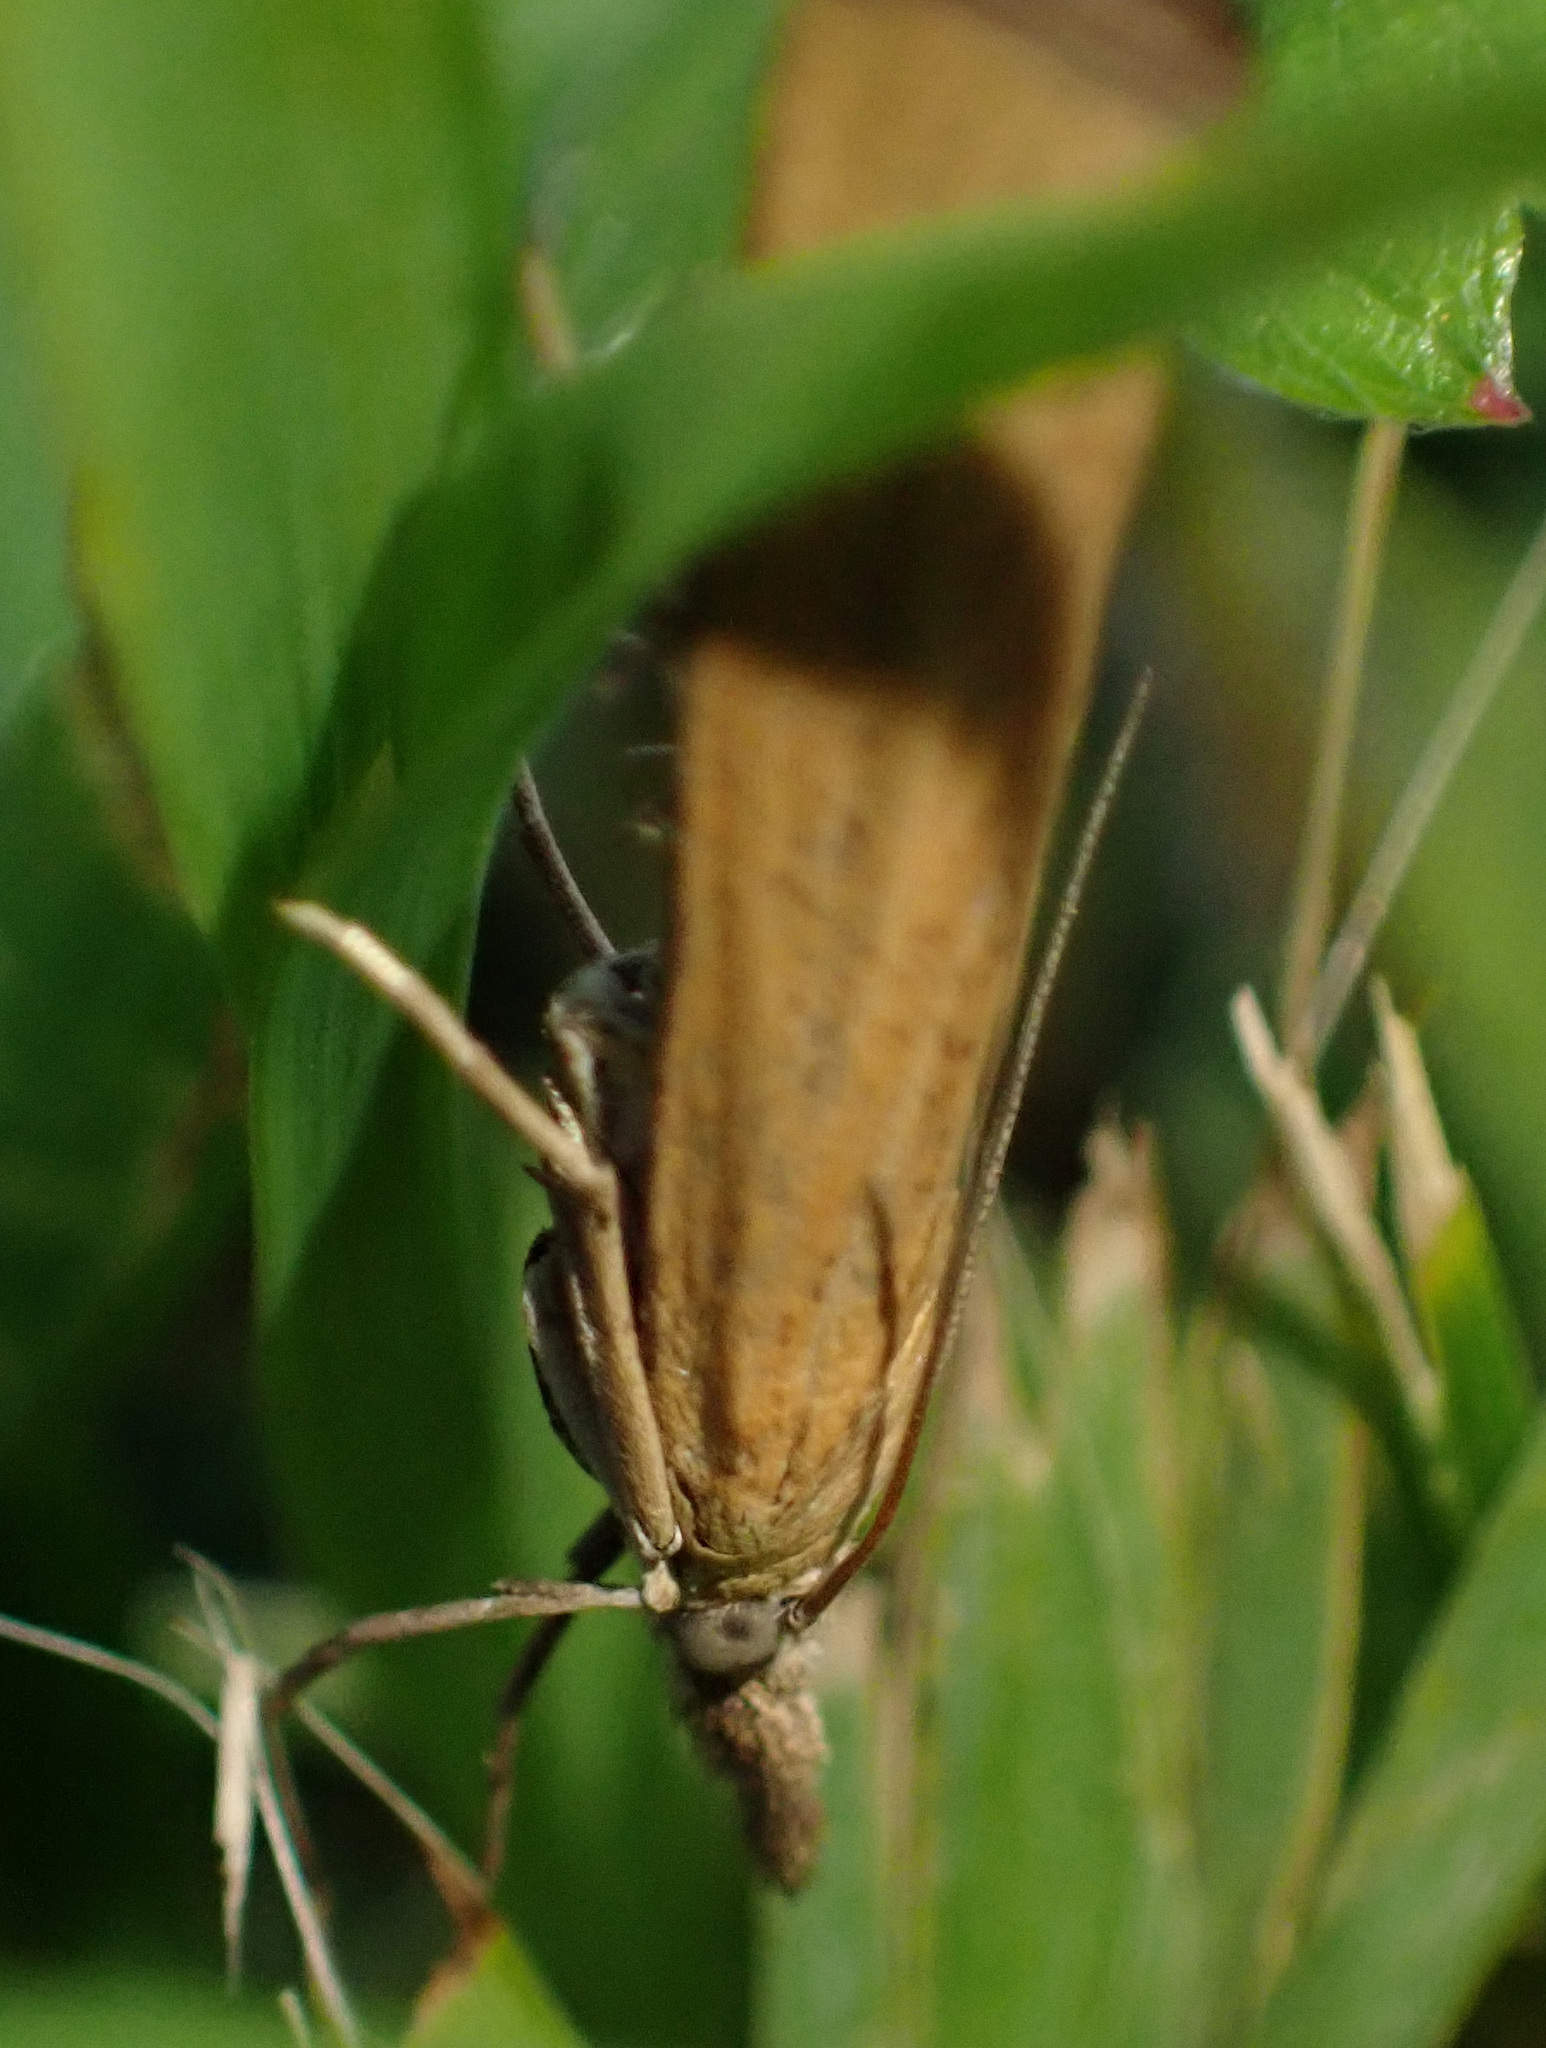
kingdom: Animalia
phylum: Arthropoda
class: Insecta
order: Lepidoptera
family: Crambidae
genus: Pediasia
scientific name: Pediasia luteella
